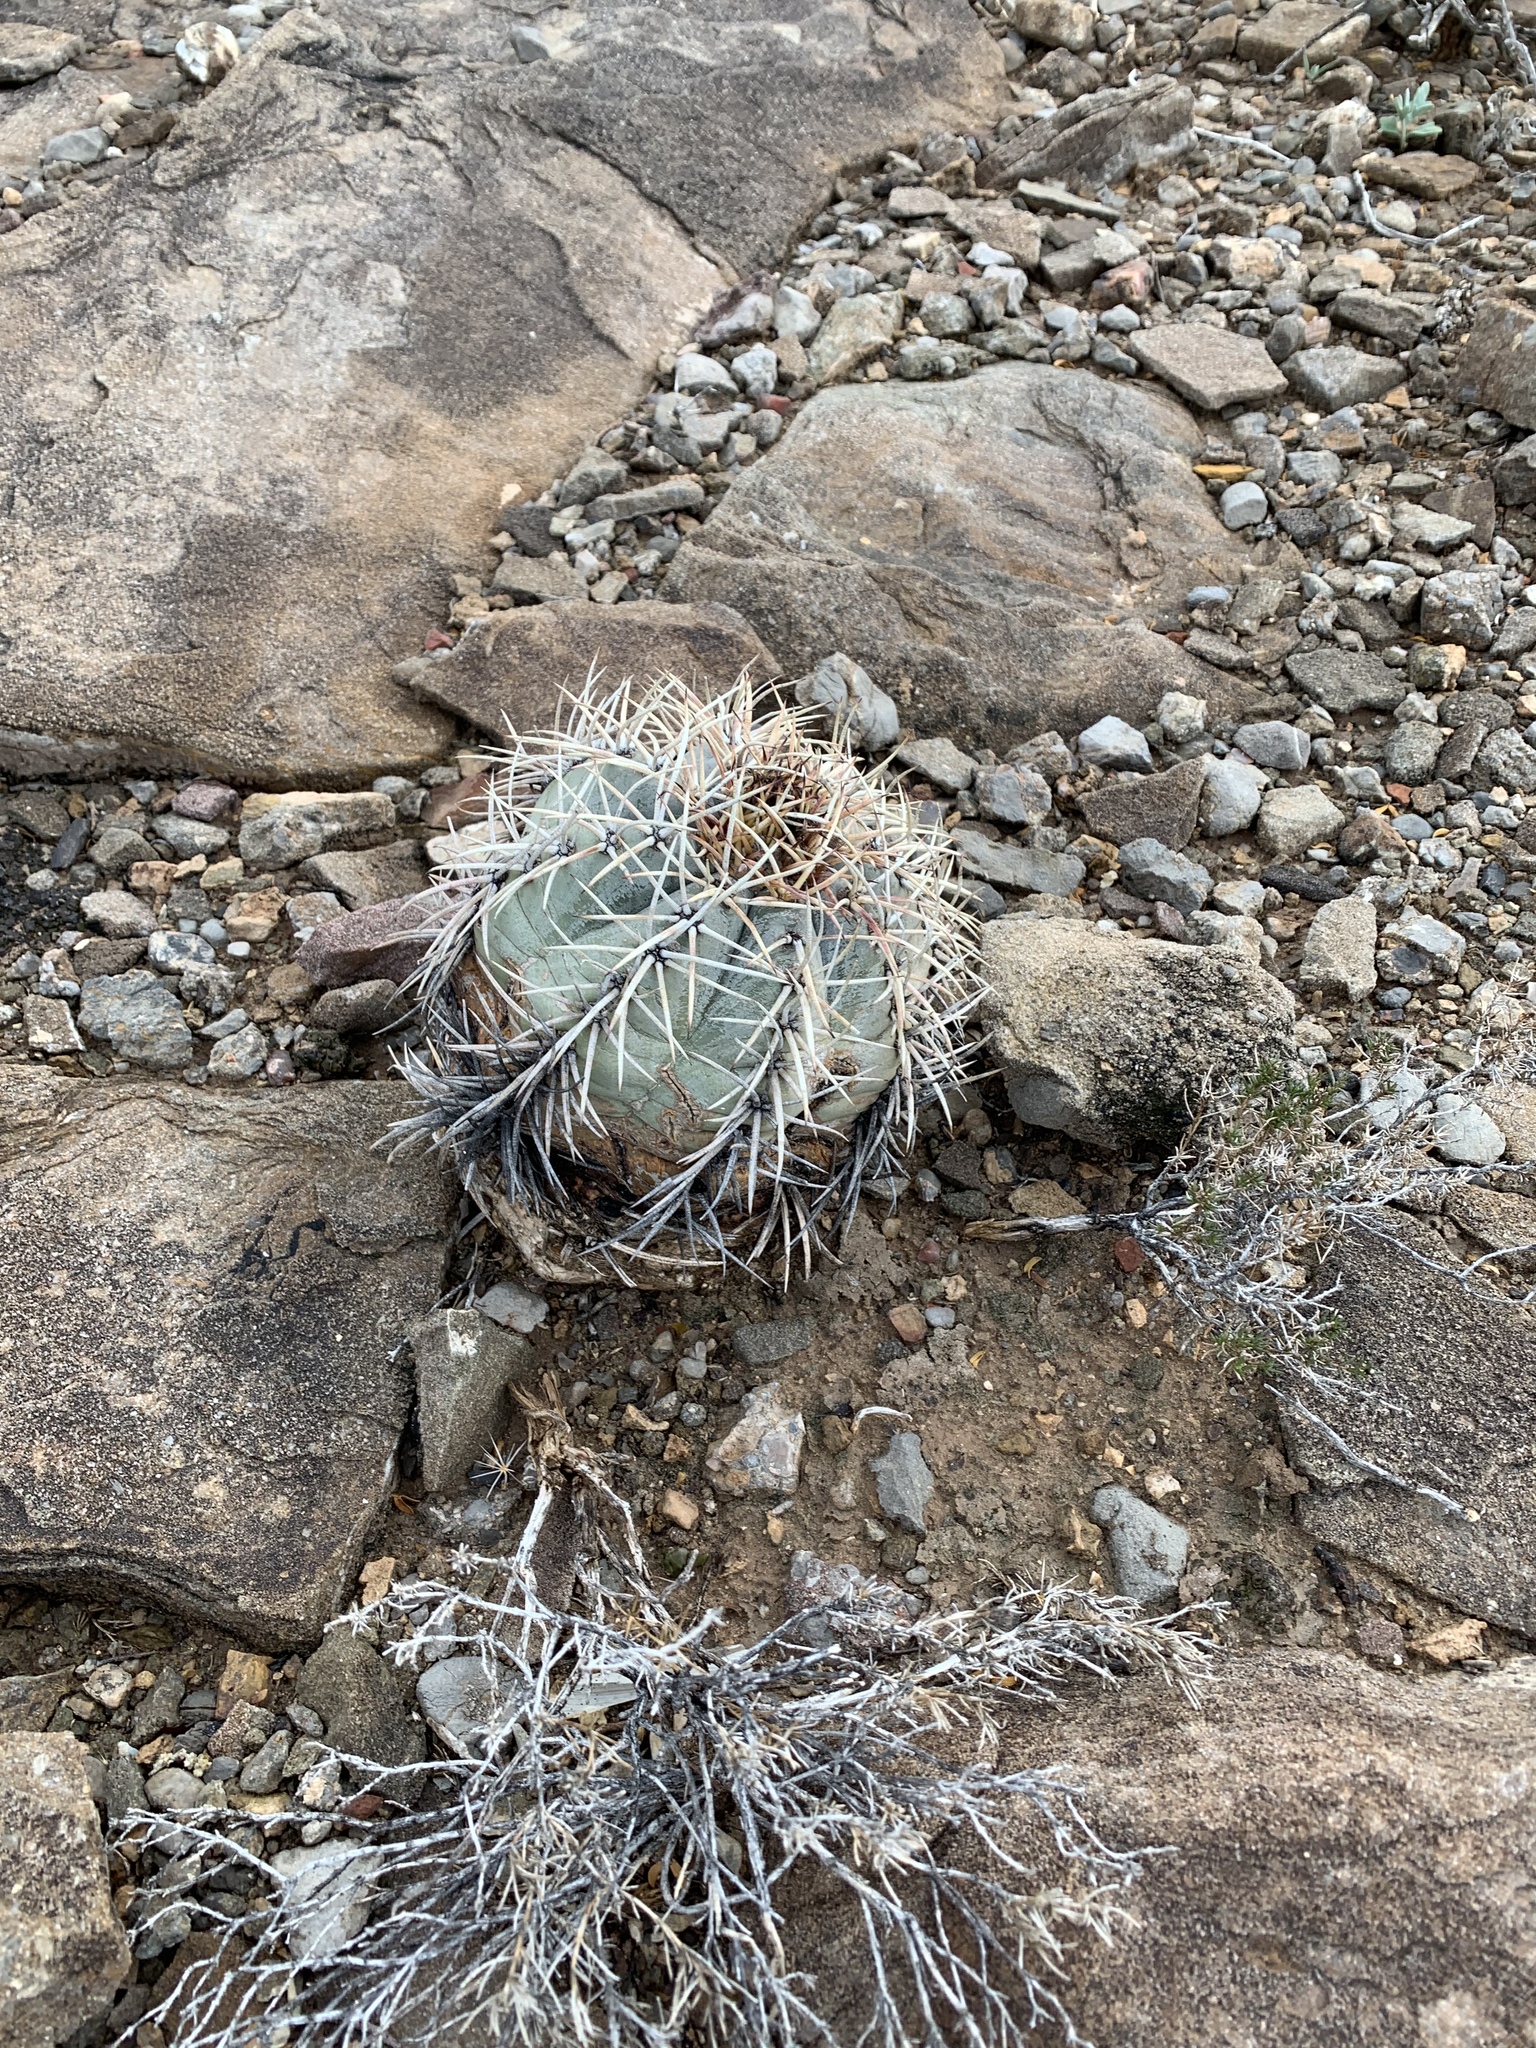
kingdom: Plantae
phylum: Tracheophyta
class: Magnoliopsida
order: Caryophyllales
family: Cactaceae
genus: Echinocactus
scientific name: Echinocactus horizonthalonius
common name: Devilshead
